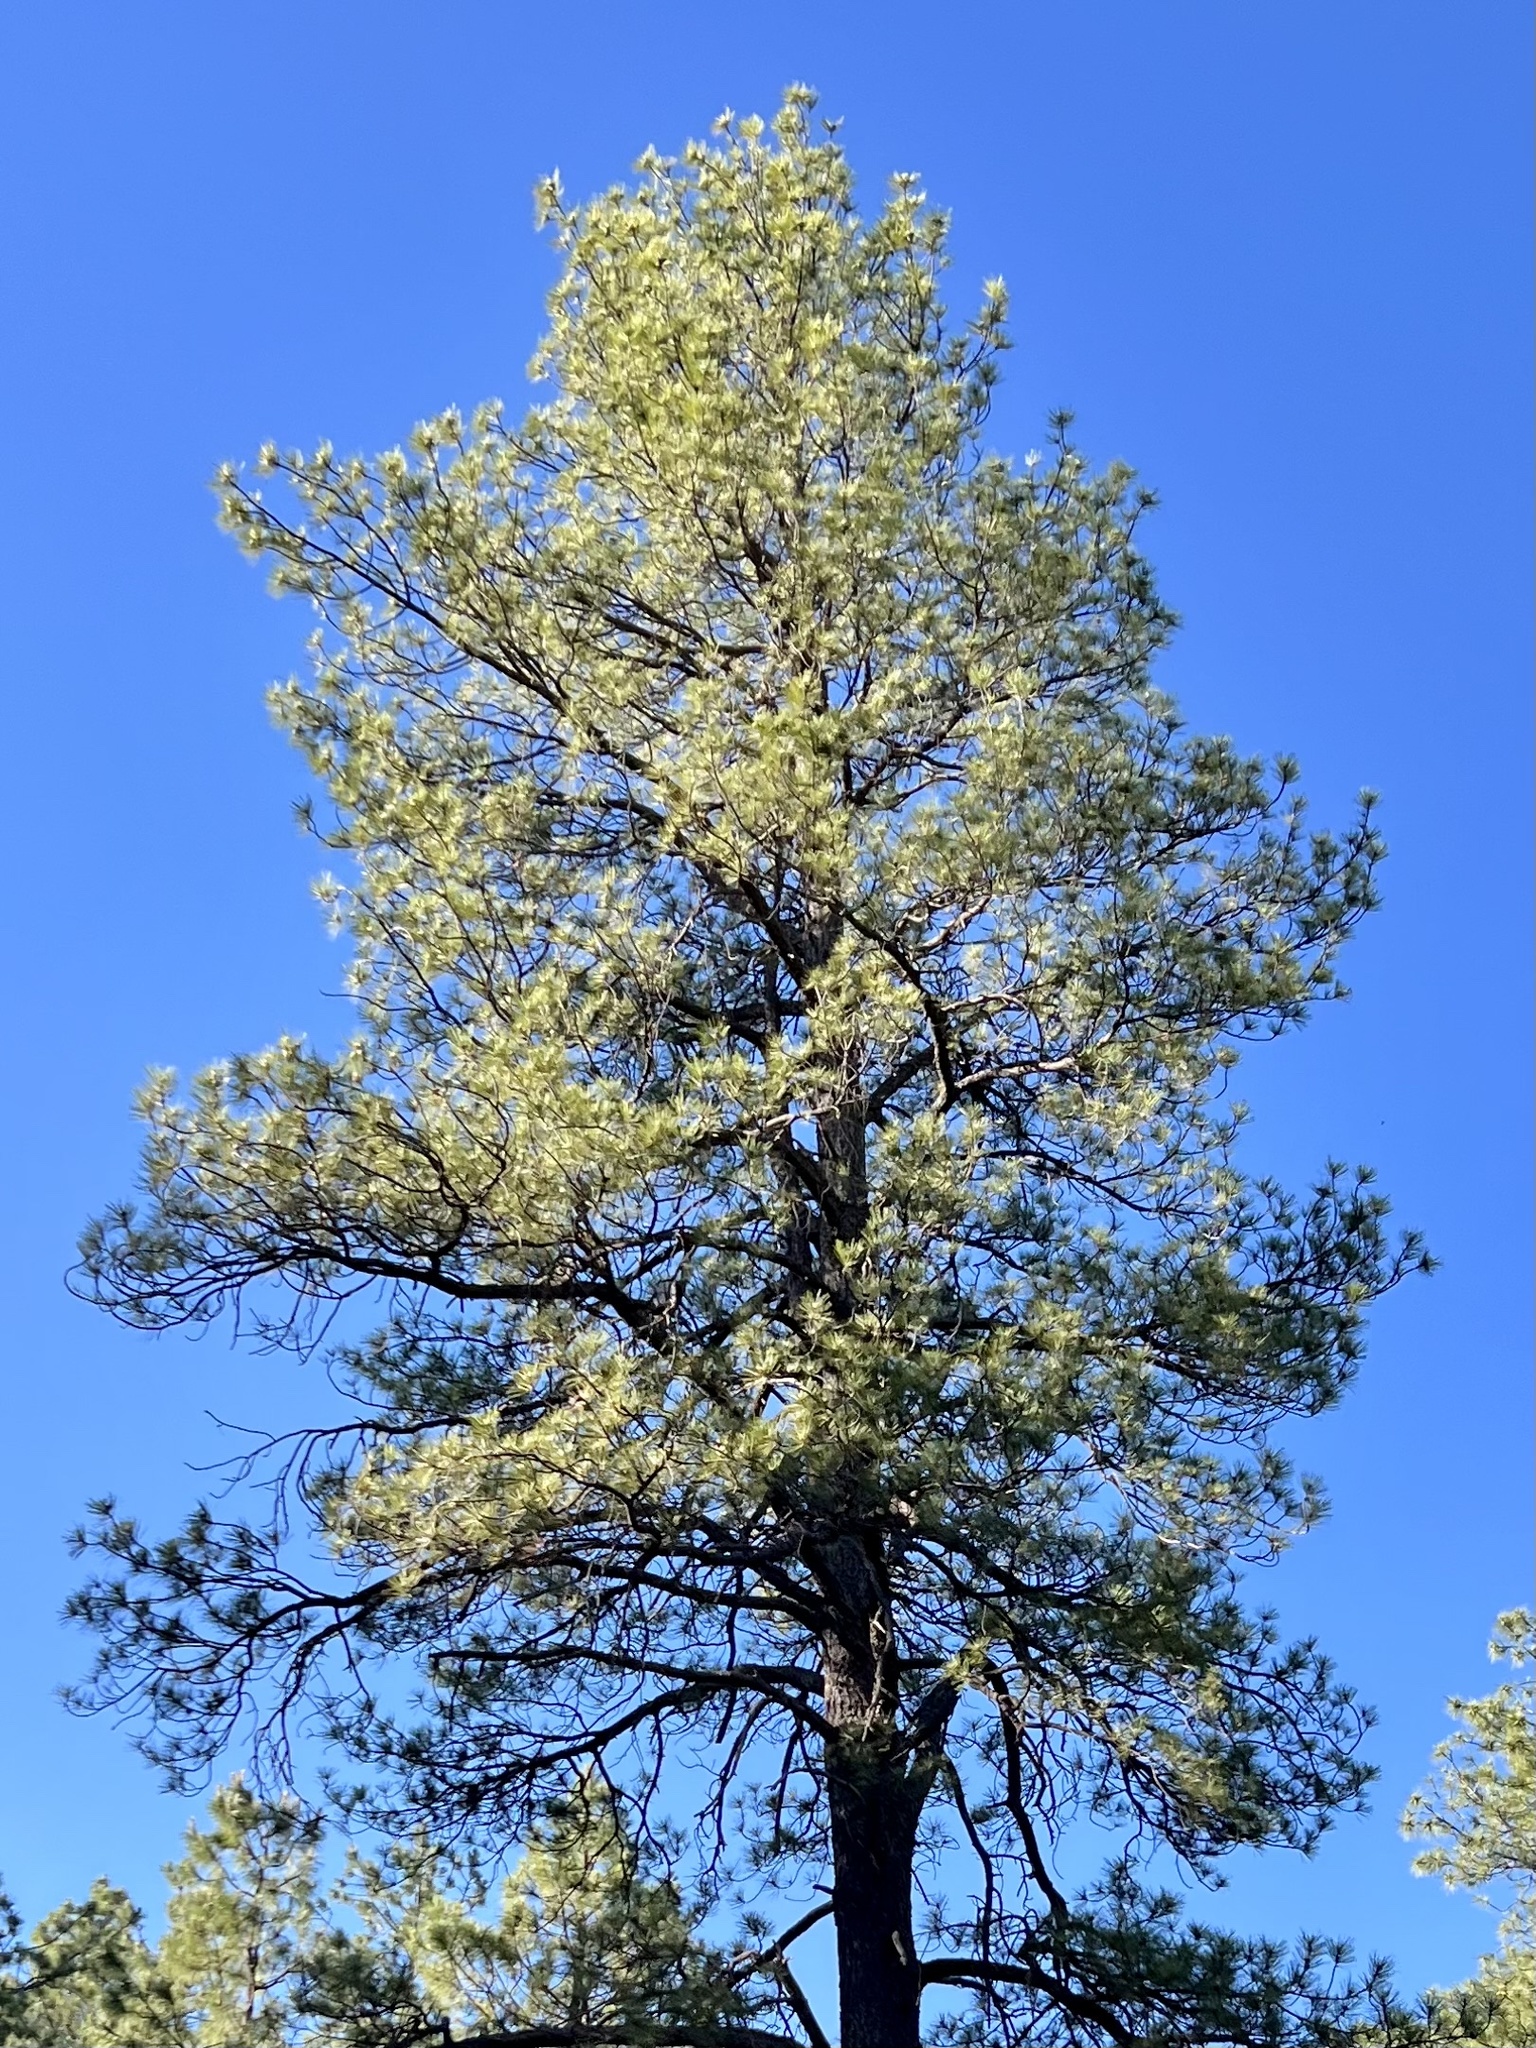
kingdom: Plantae
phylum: Tracheophyta
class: Pinopsida
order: Pinales
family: Pinaceae
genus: Pinus
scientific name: Pinus ponderosa
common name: Western yellow-pine
